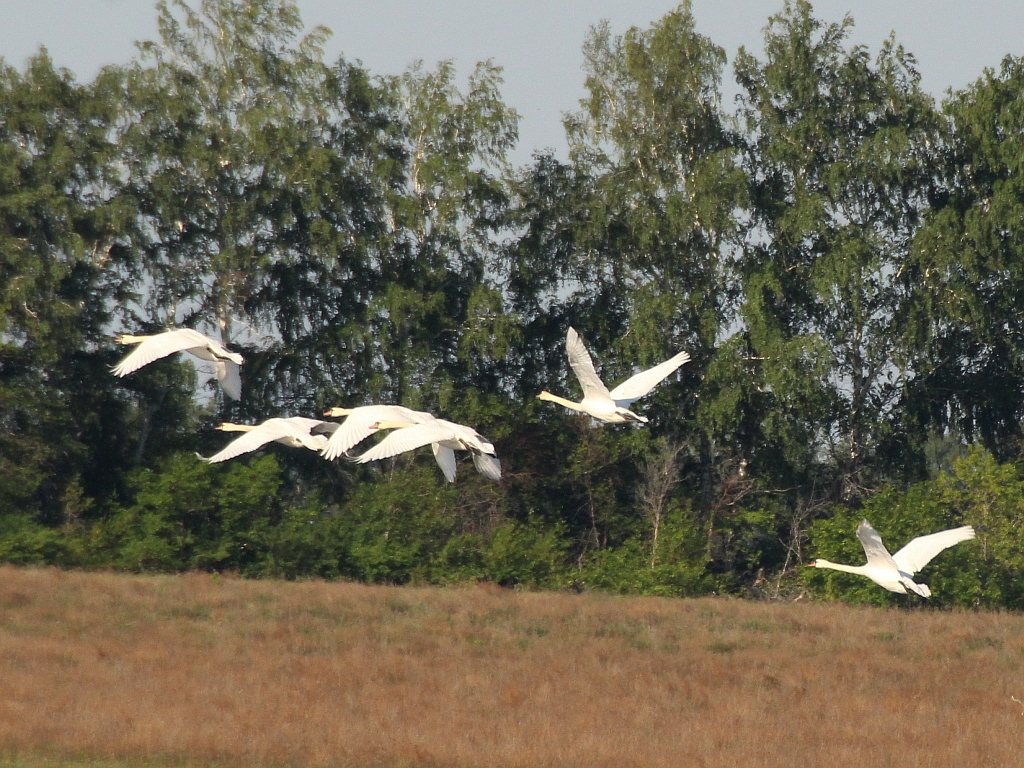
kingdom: Animalia
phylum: Chordata
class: Aves
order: Anseriformes
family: Anatidae
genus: Cygnus
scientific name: Cygnus olor
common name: Mute swan
